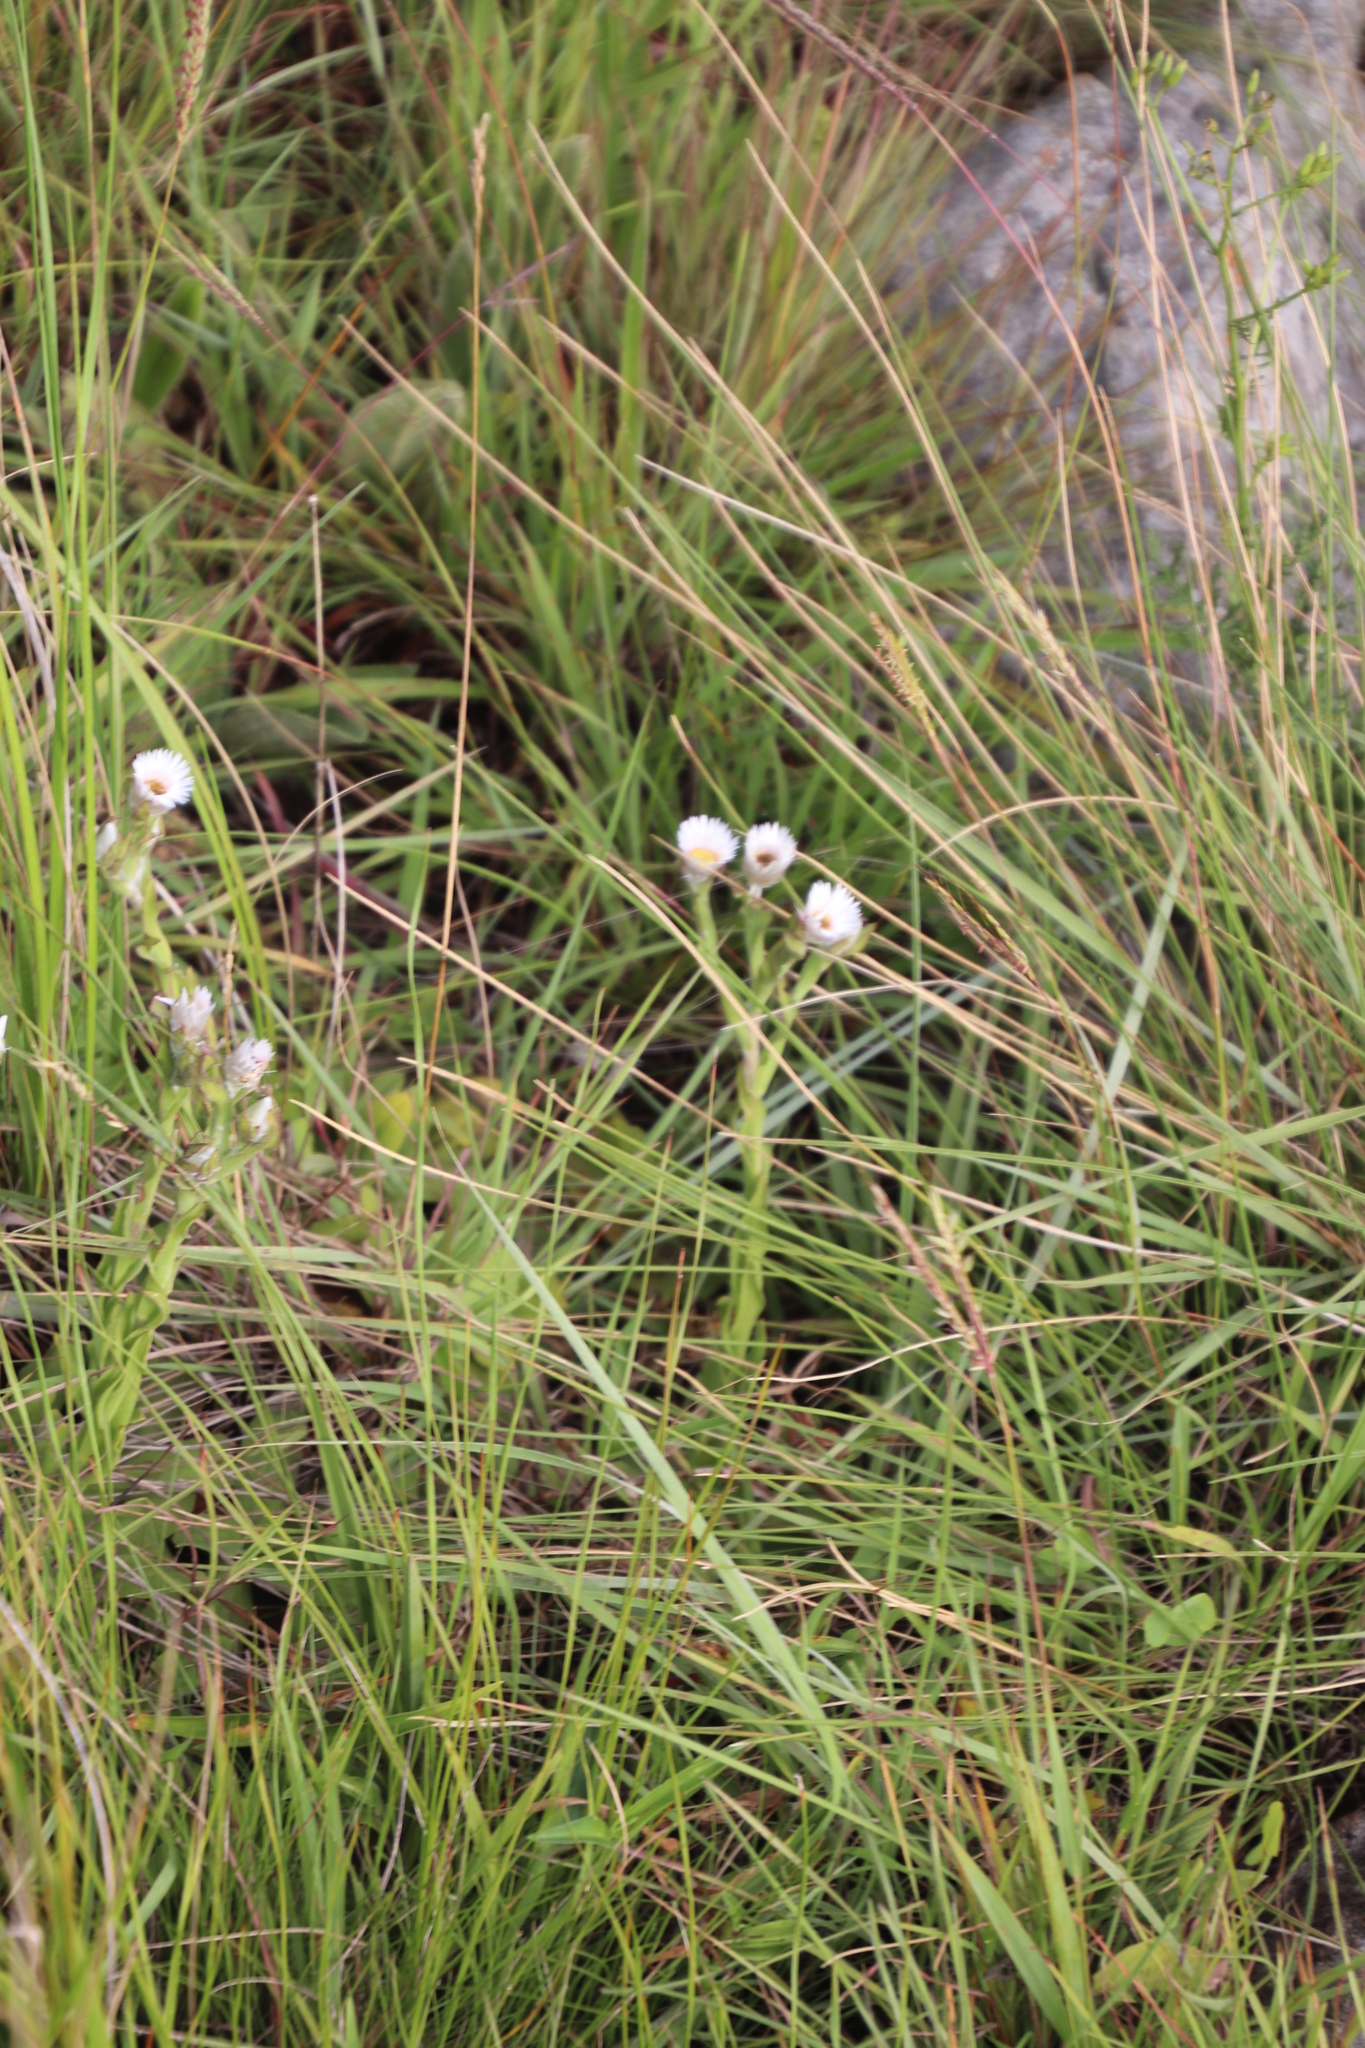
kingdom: Plantae
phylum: Tracheophyta
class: Magnoliopsida
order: Asterales
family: Asteraceae
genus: Helichrysum
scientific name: Helichrysum monticola
